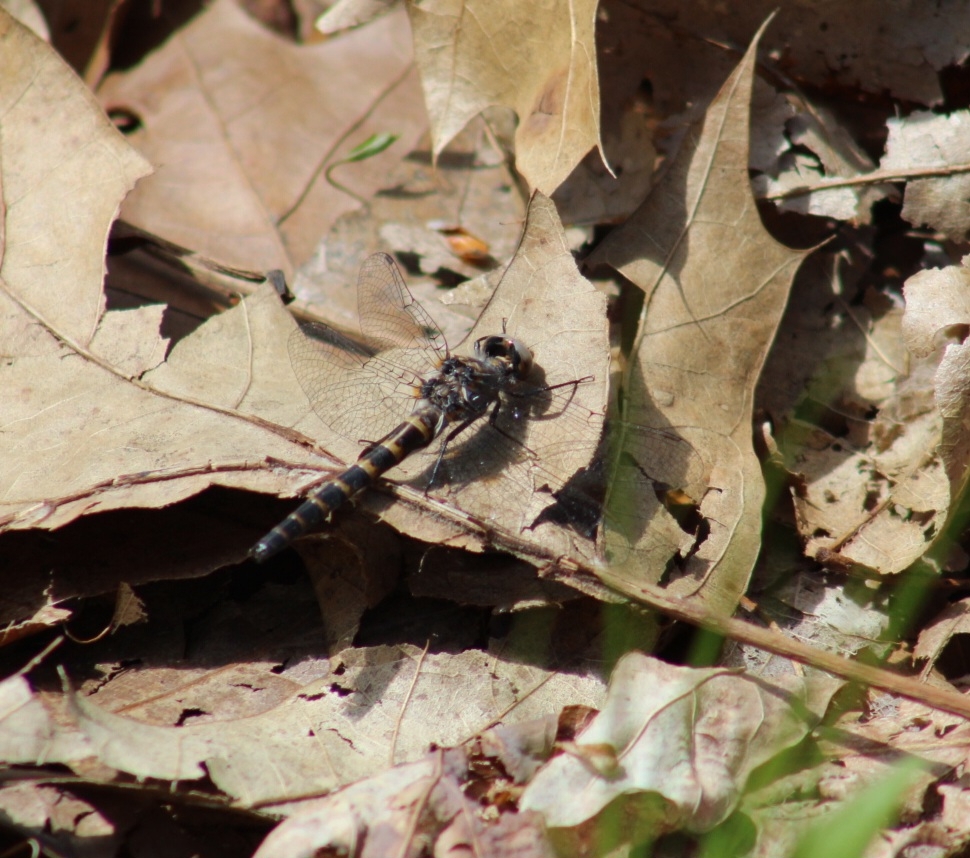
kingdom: Animalia
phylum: Arthropoda
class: Insecta
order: Odonata
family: Corduliidae
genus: Williamsonia
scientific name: Williamsonia lintneri
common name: Ringed boghaunter
